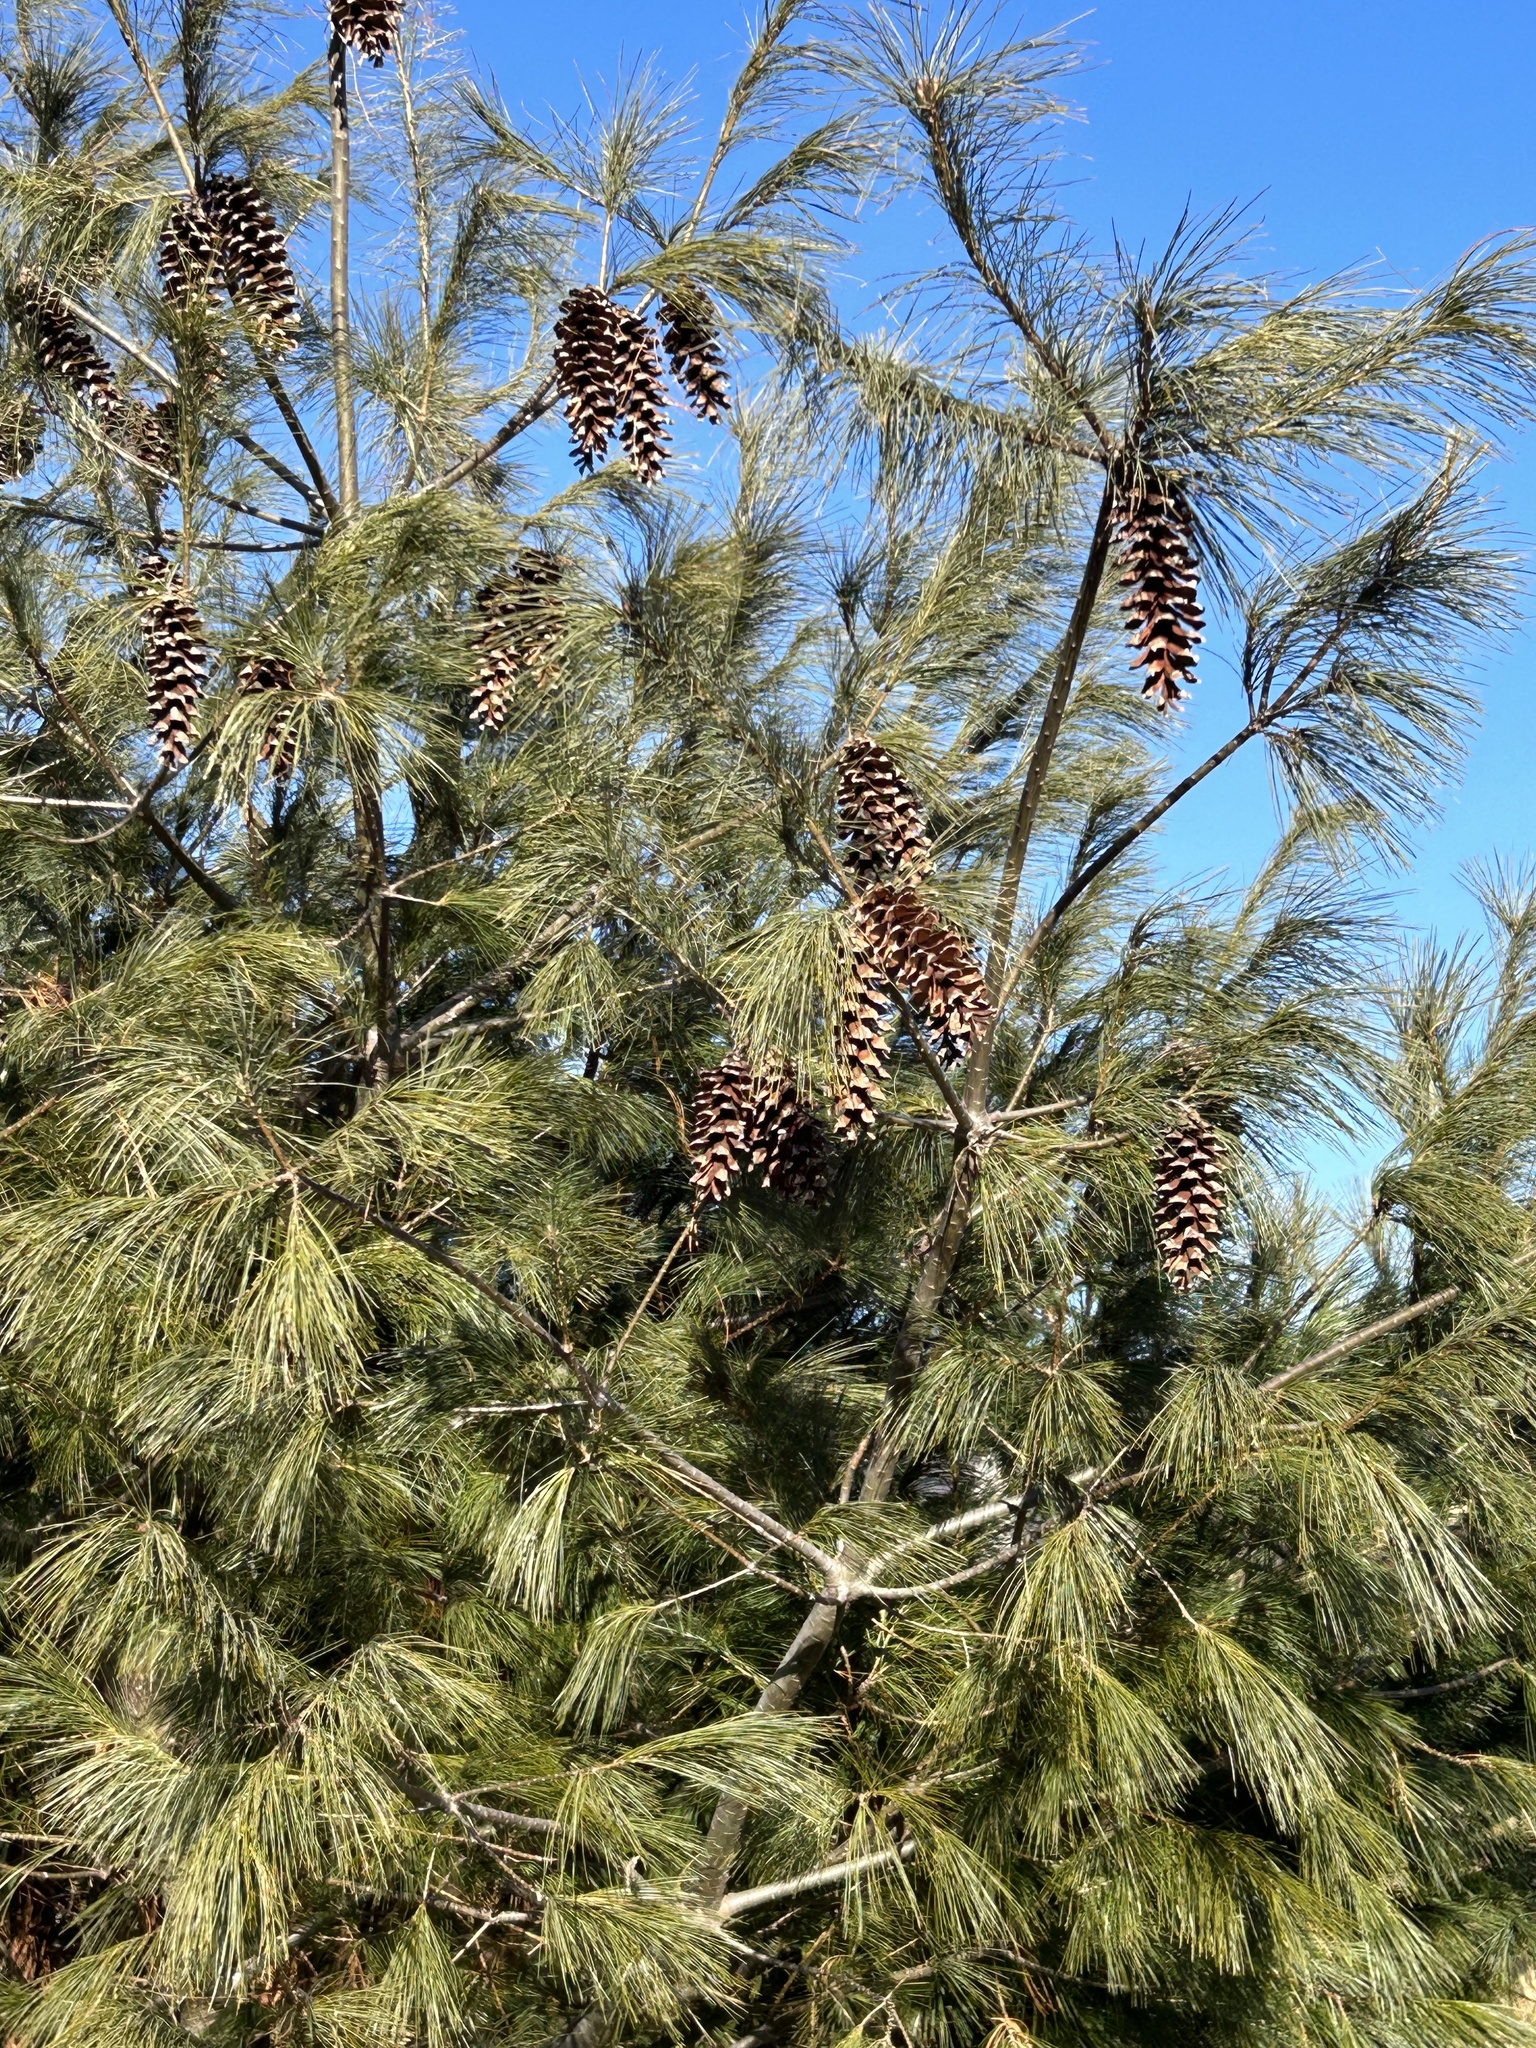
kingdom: Plantae
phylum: Tracheophyta
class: Pinopsida
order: Pinales
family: Pinaceae
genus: Pinus
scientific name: Pinus strobus
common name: Weymouth pine
